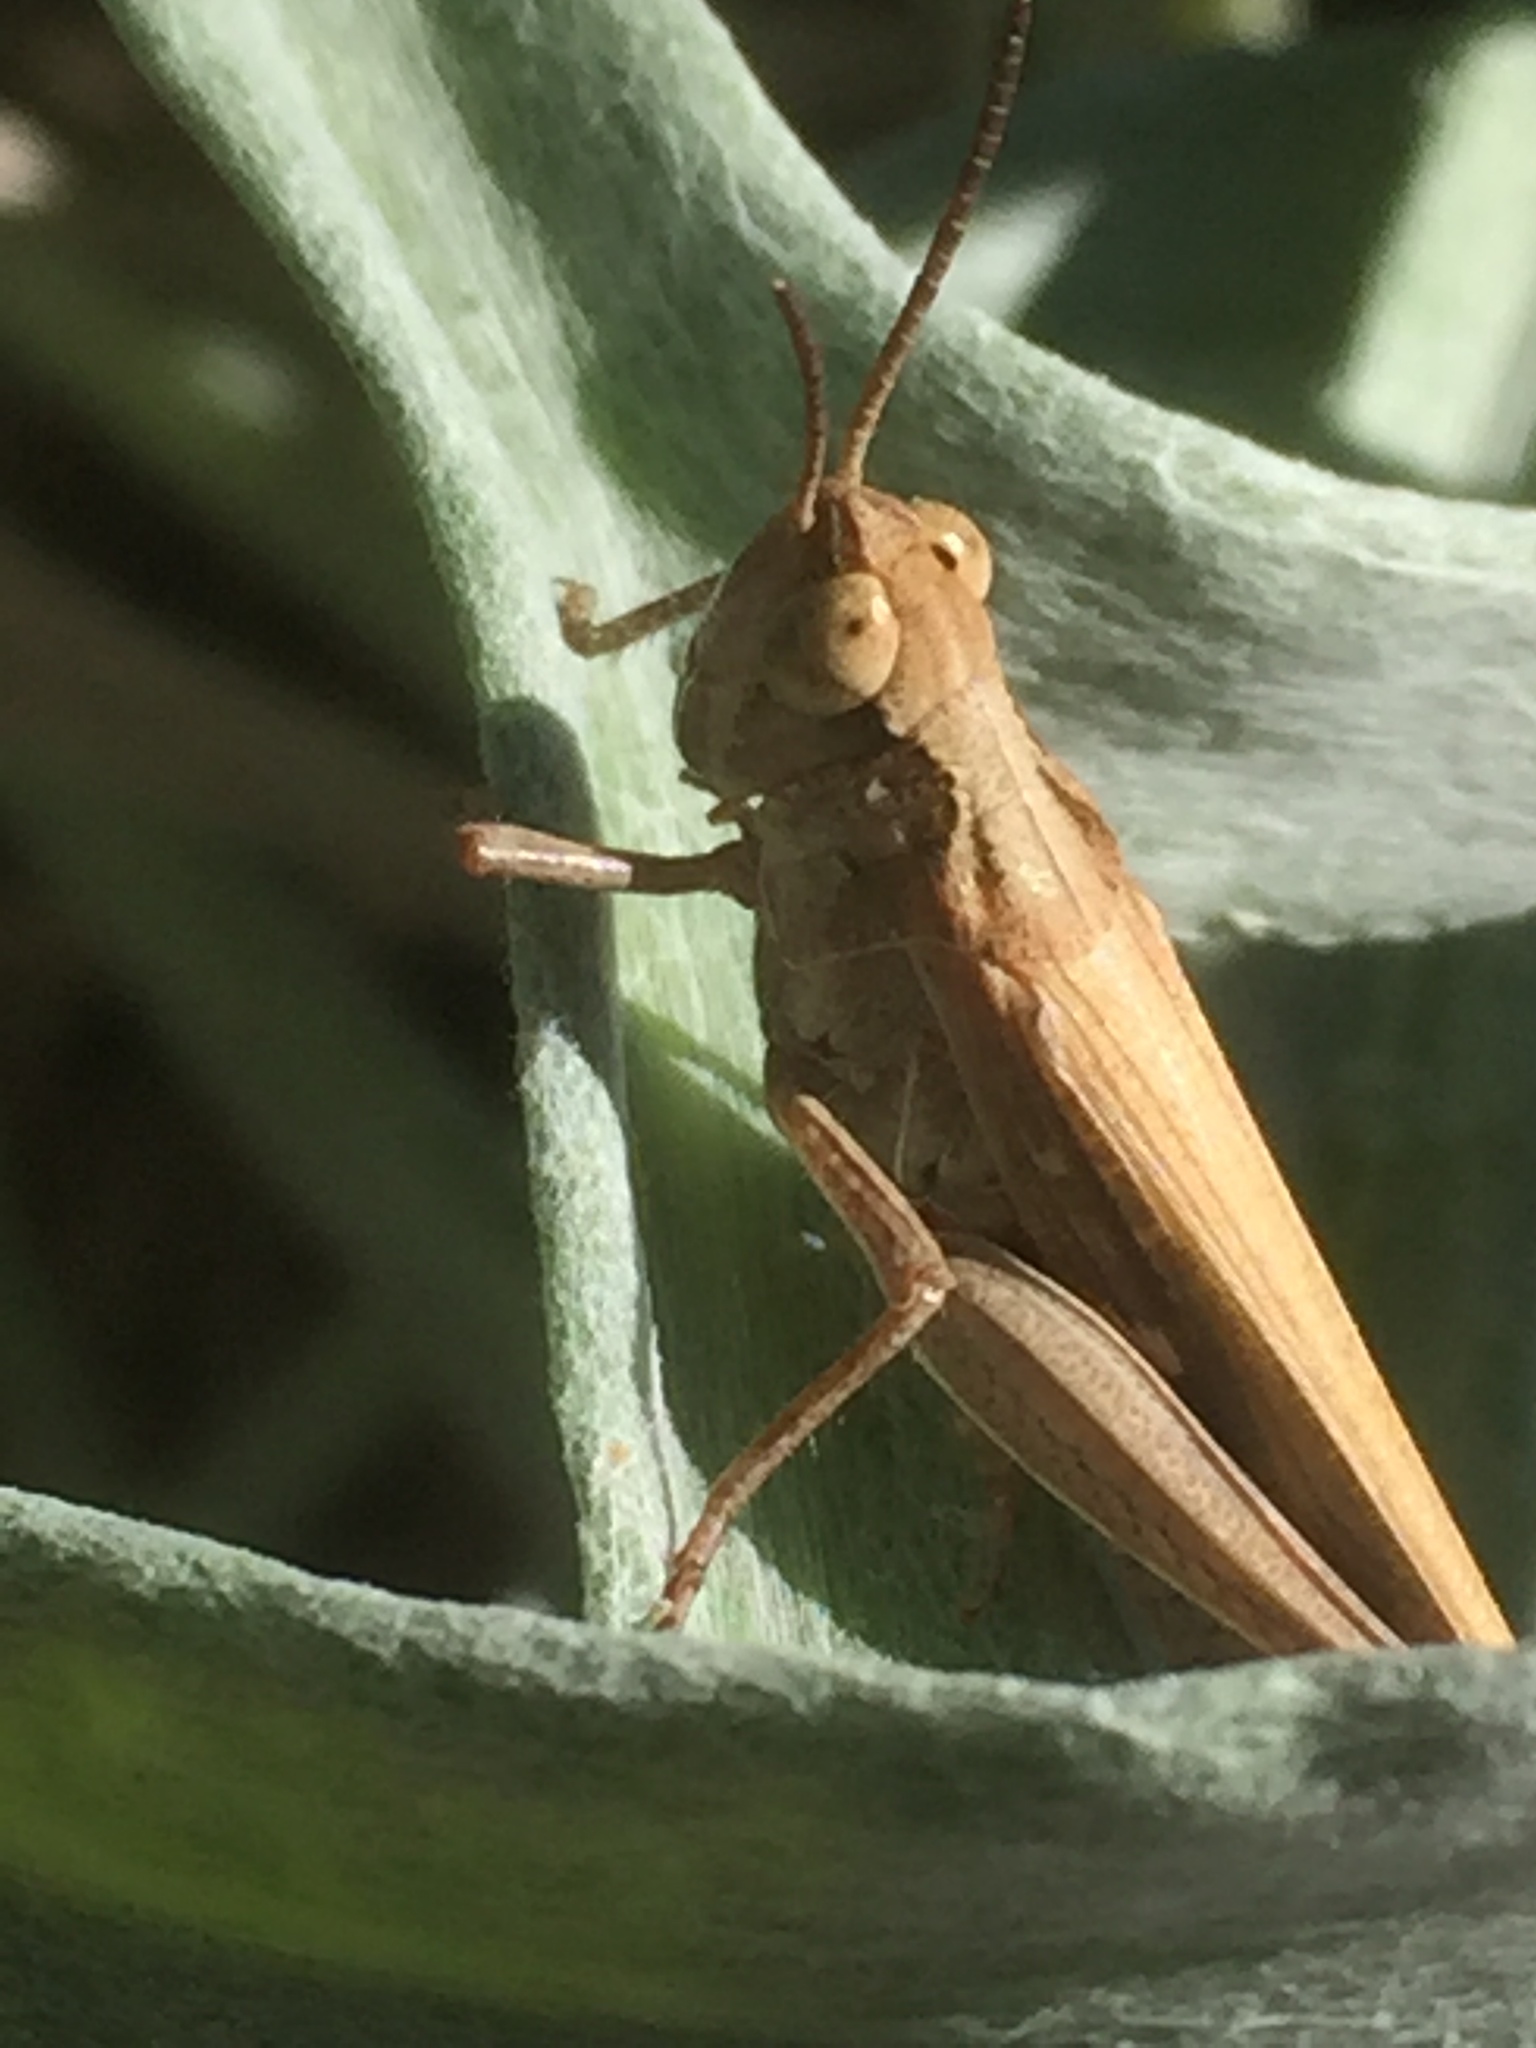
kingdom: Animalia
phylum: Arthropoda
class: Insecta
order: Orthoptera
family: Acrididae
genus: Aiolopus
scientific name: Aiolopus thalassinus
